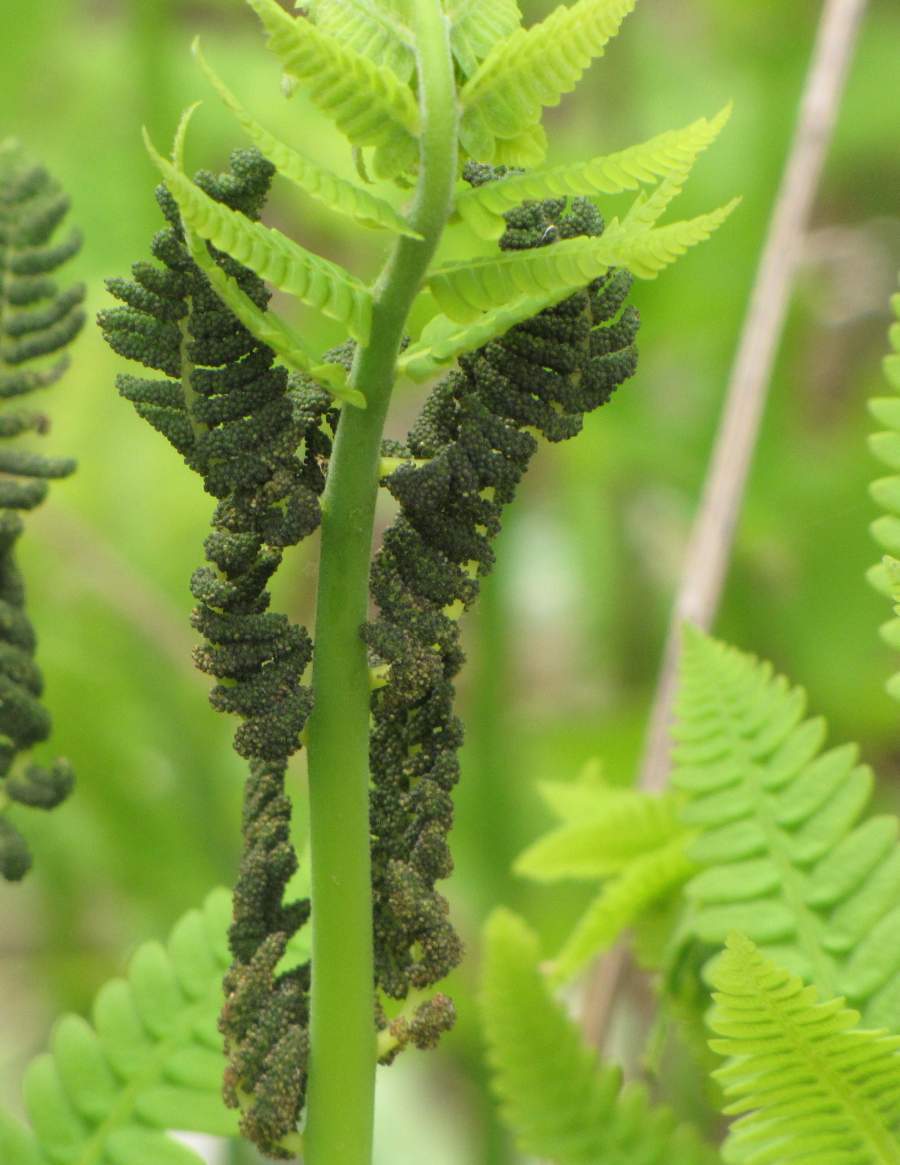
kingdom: Plantae
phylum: Tracheophyta
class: Polypodiopsida
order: Osmundales
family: Osmundaceae
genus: Claytosmunda
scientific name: Claytosmunda claytoniana
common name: Clayton's fern
